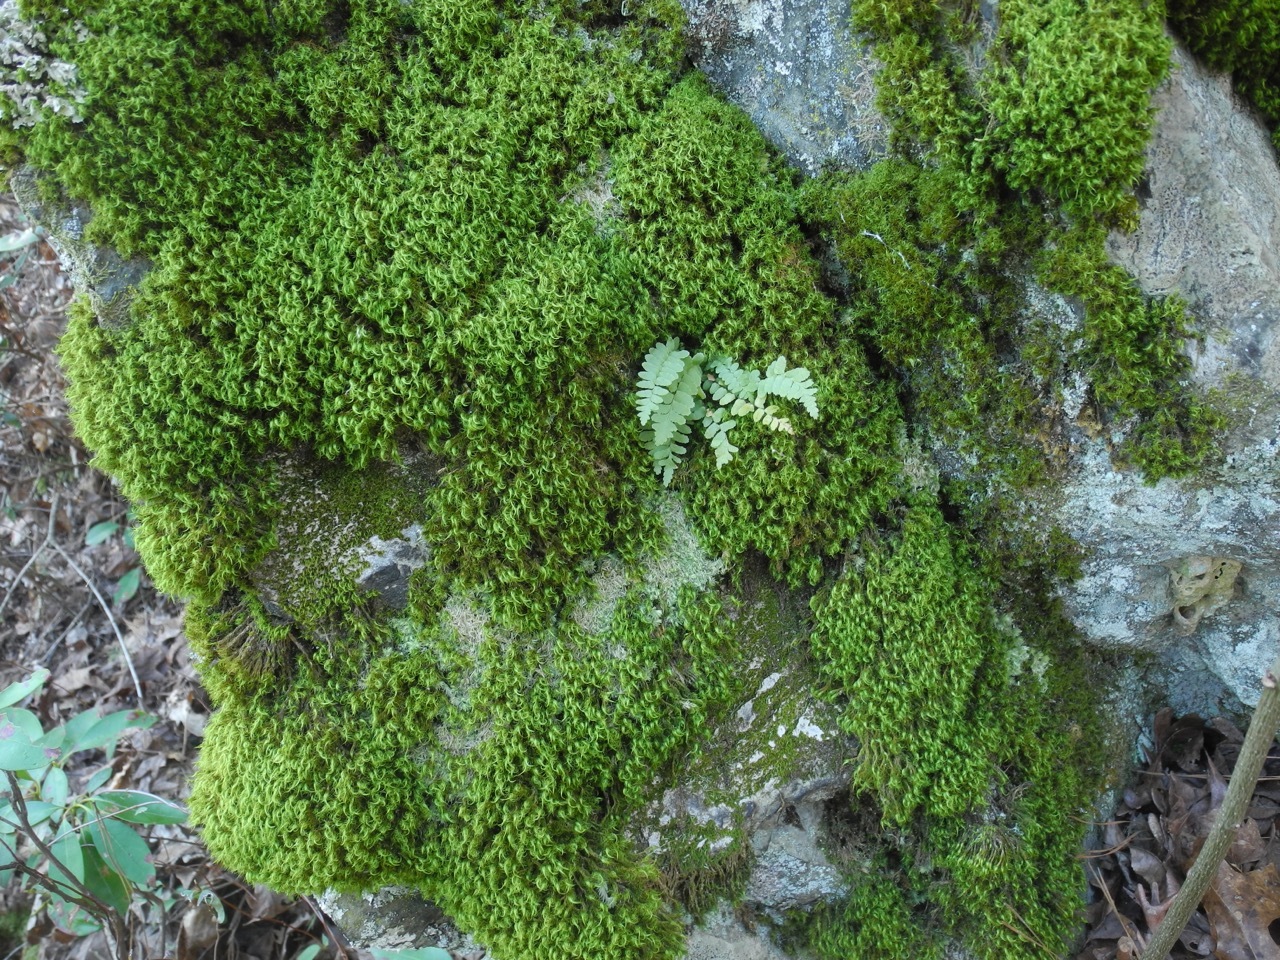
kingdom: Plantae
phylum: Tracheophyta
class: Polypodiopsida
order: Polypodiales
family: Aspleniaceae
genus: Asplenium
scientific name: Asplenium platyneuron
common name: Ebony spleenwort
